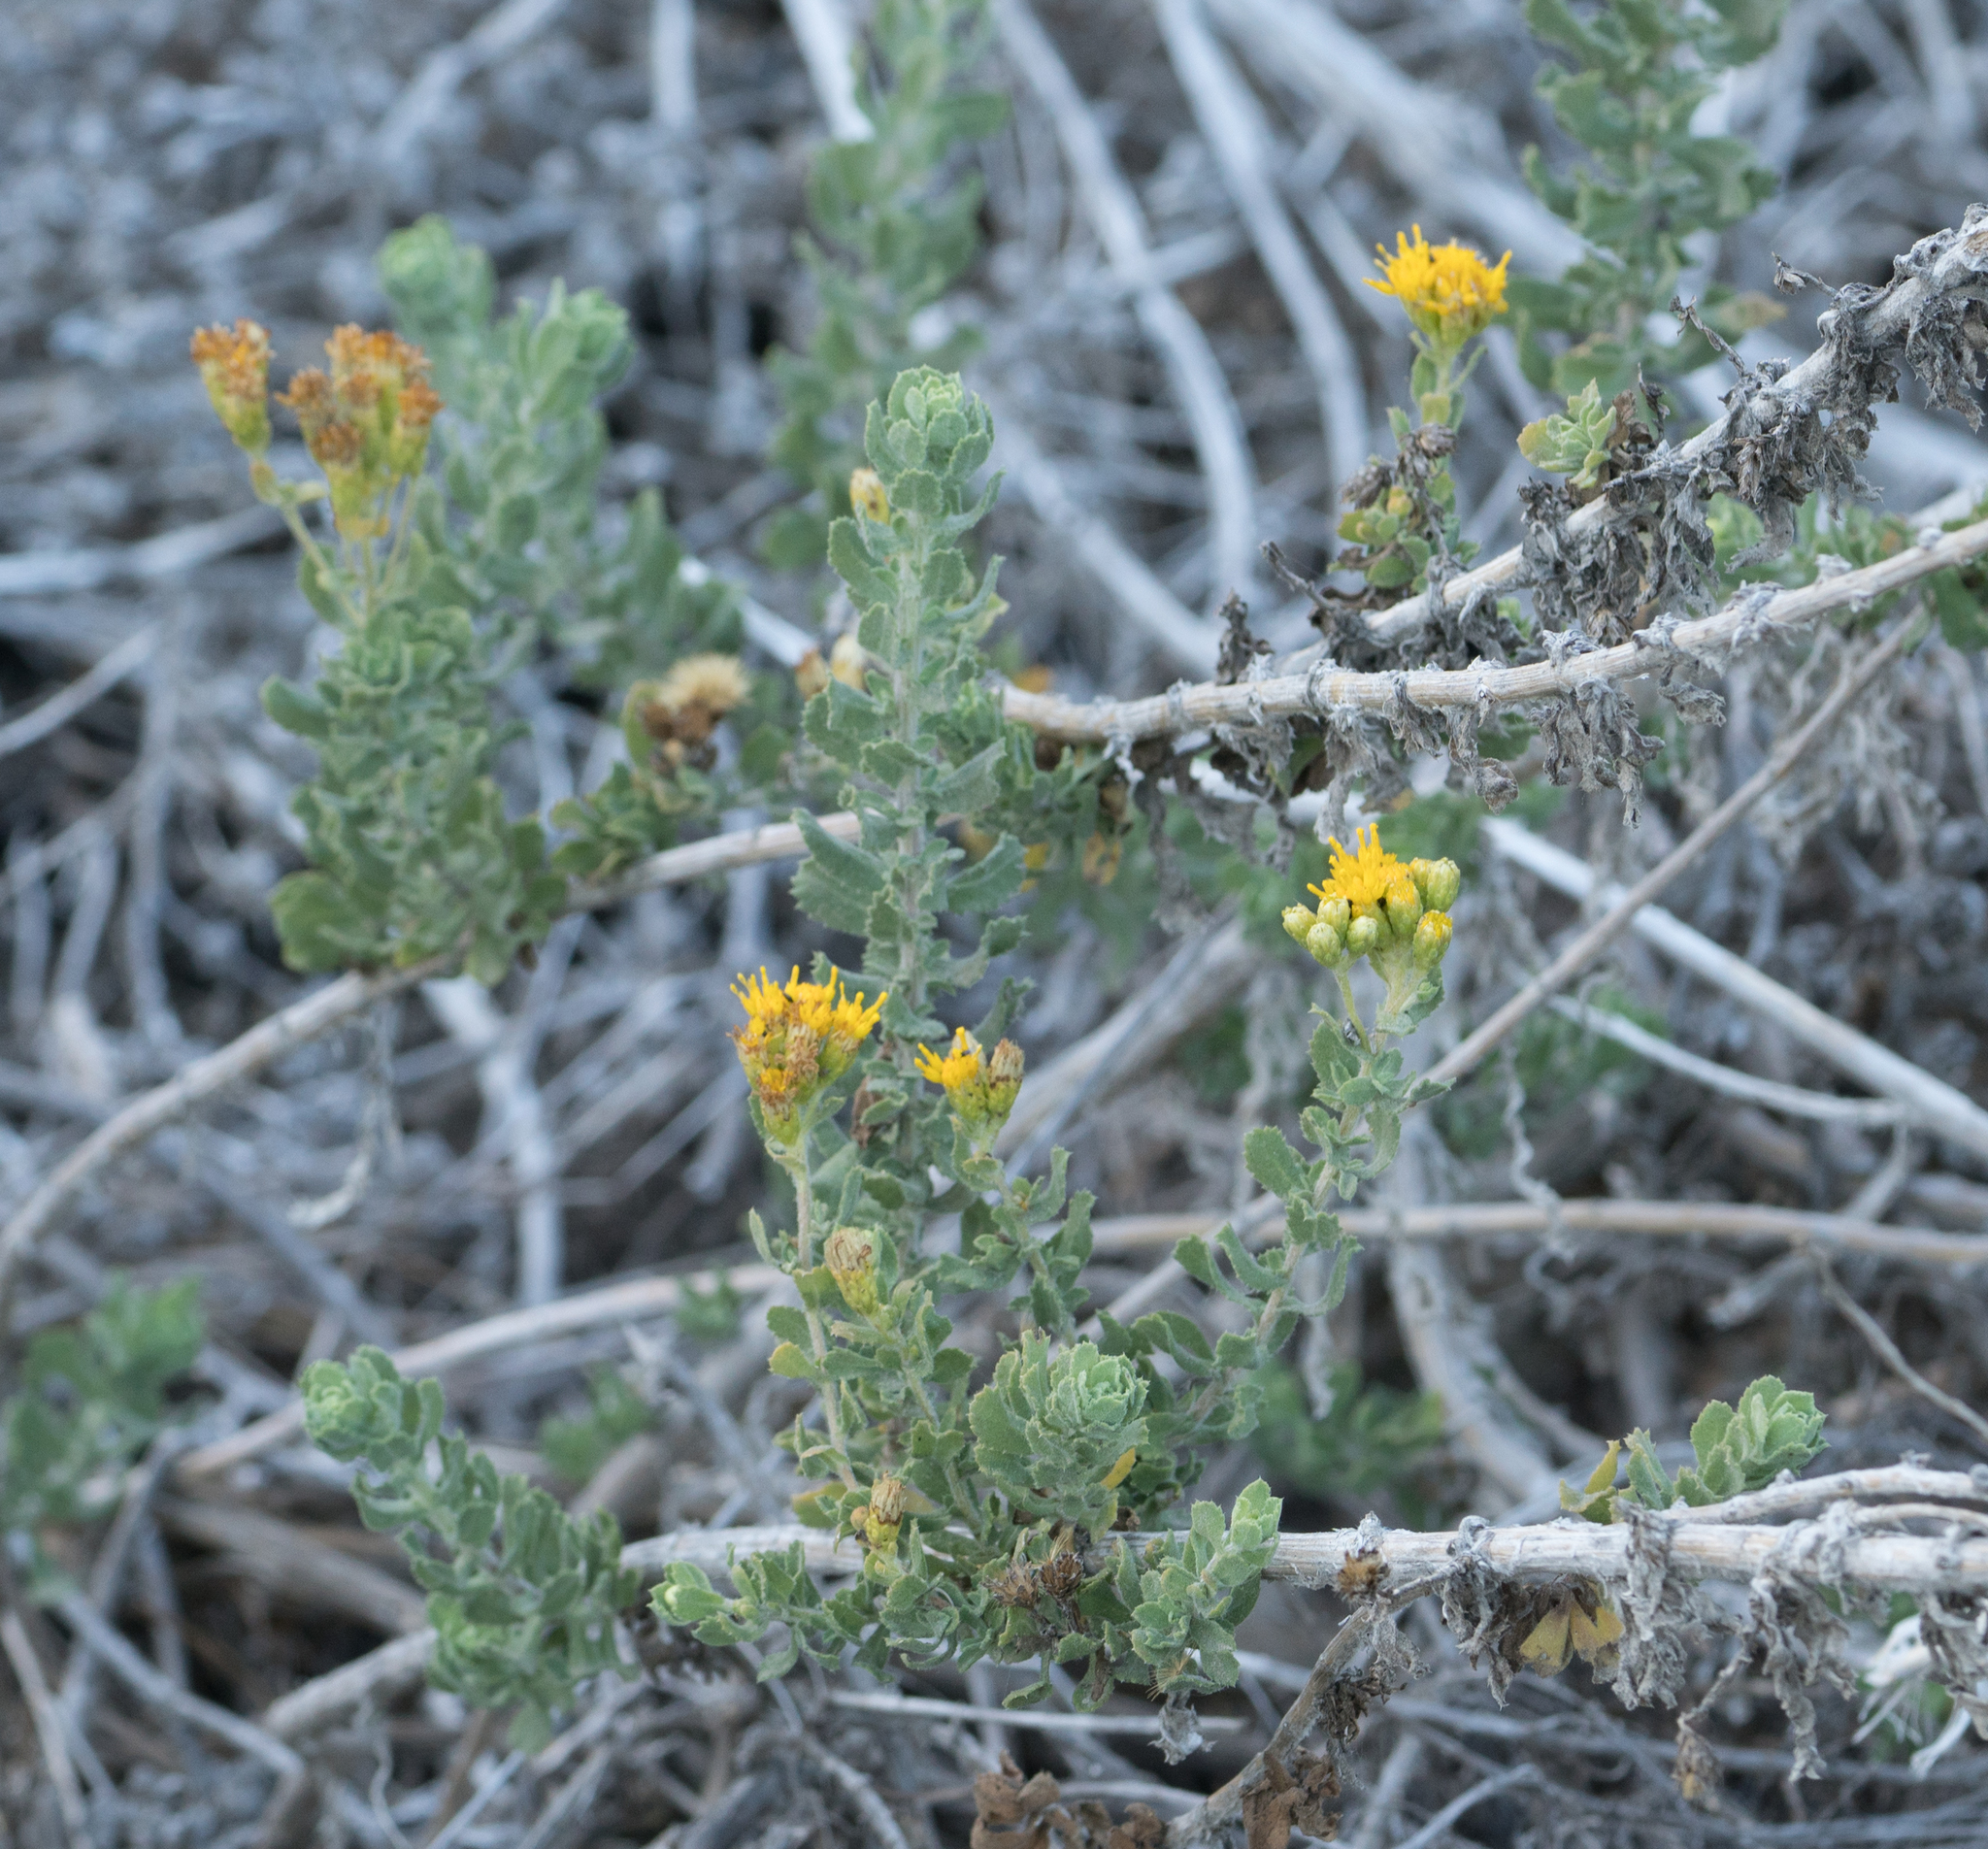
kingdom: Plantae
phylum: Tracheophyta
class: Magnoliopsida
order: Asterales
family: Asteraceae
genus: Isocoma
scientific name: Isocoma menziesii
